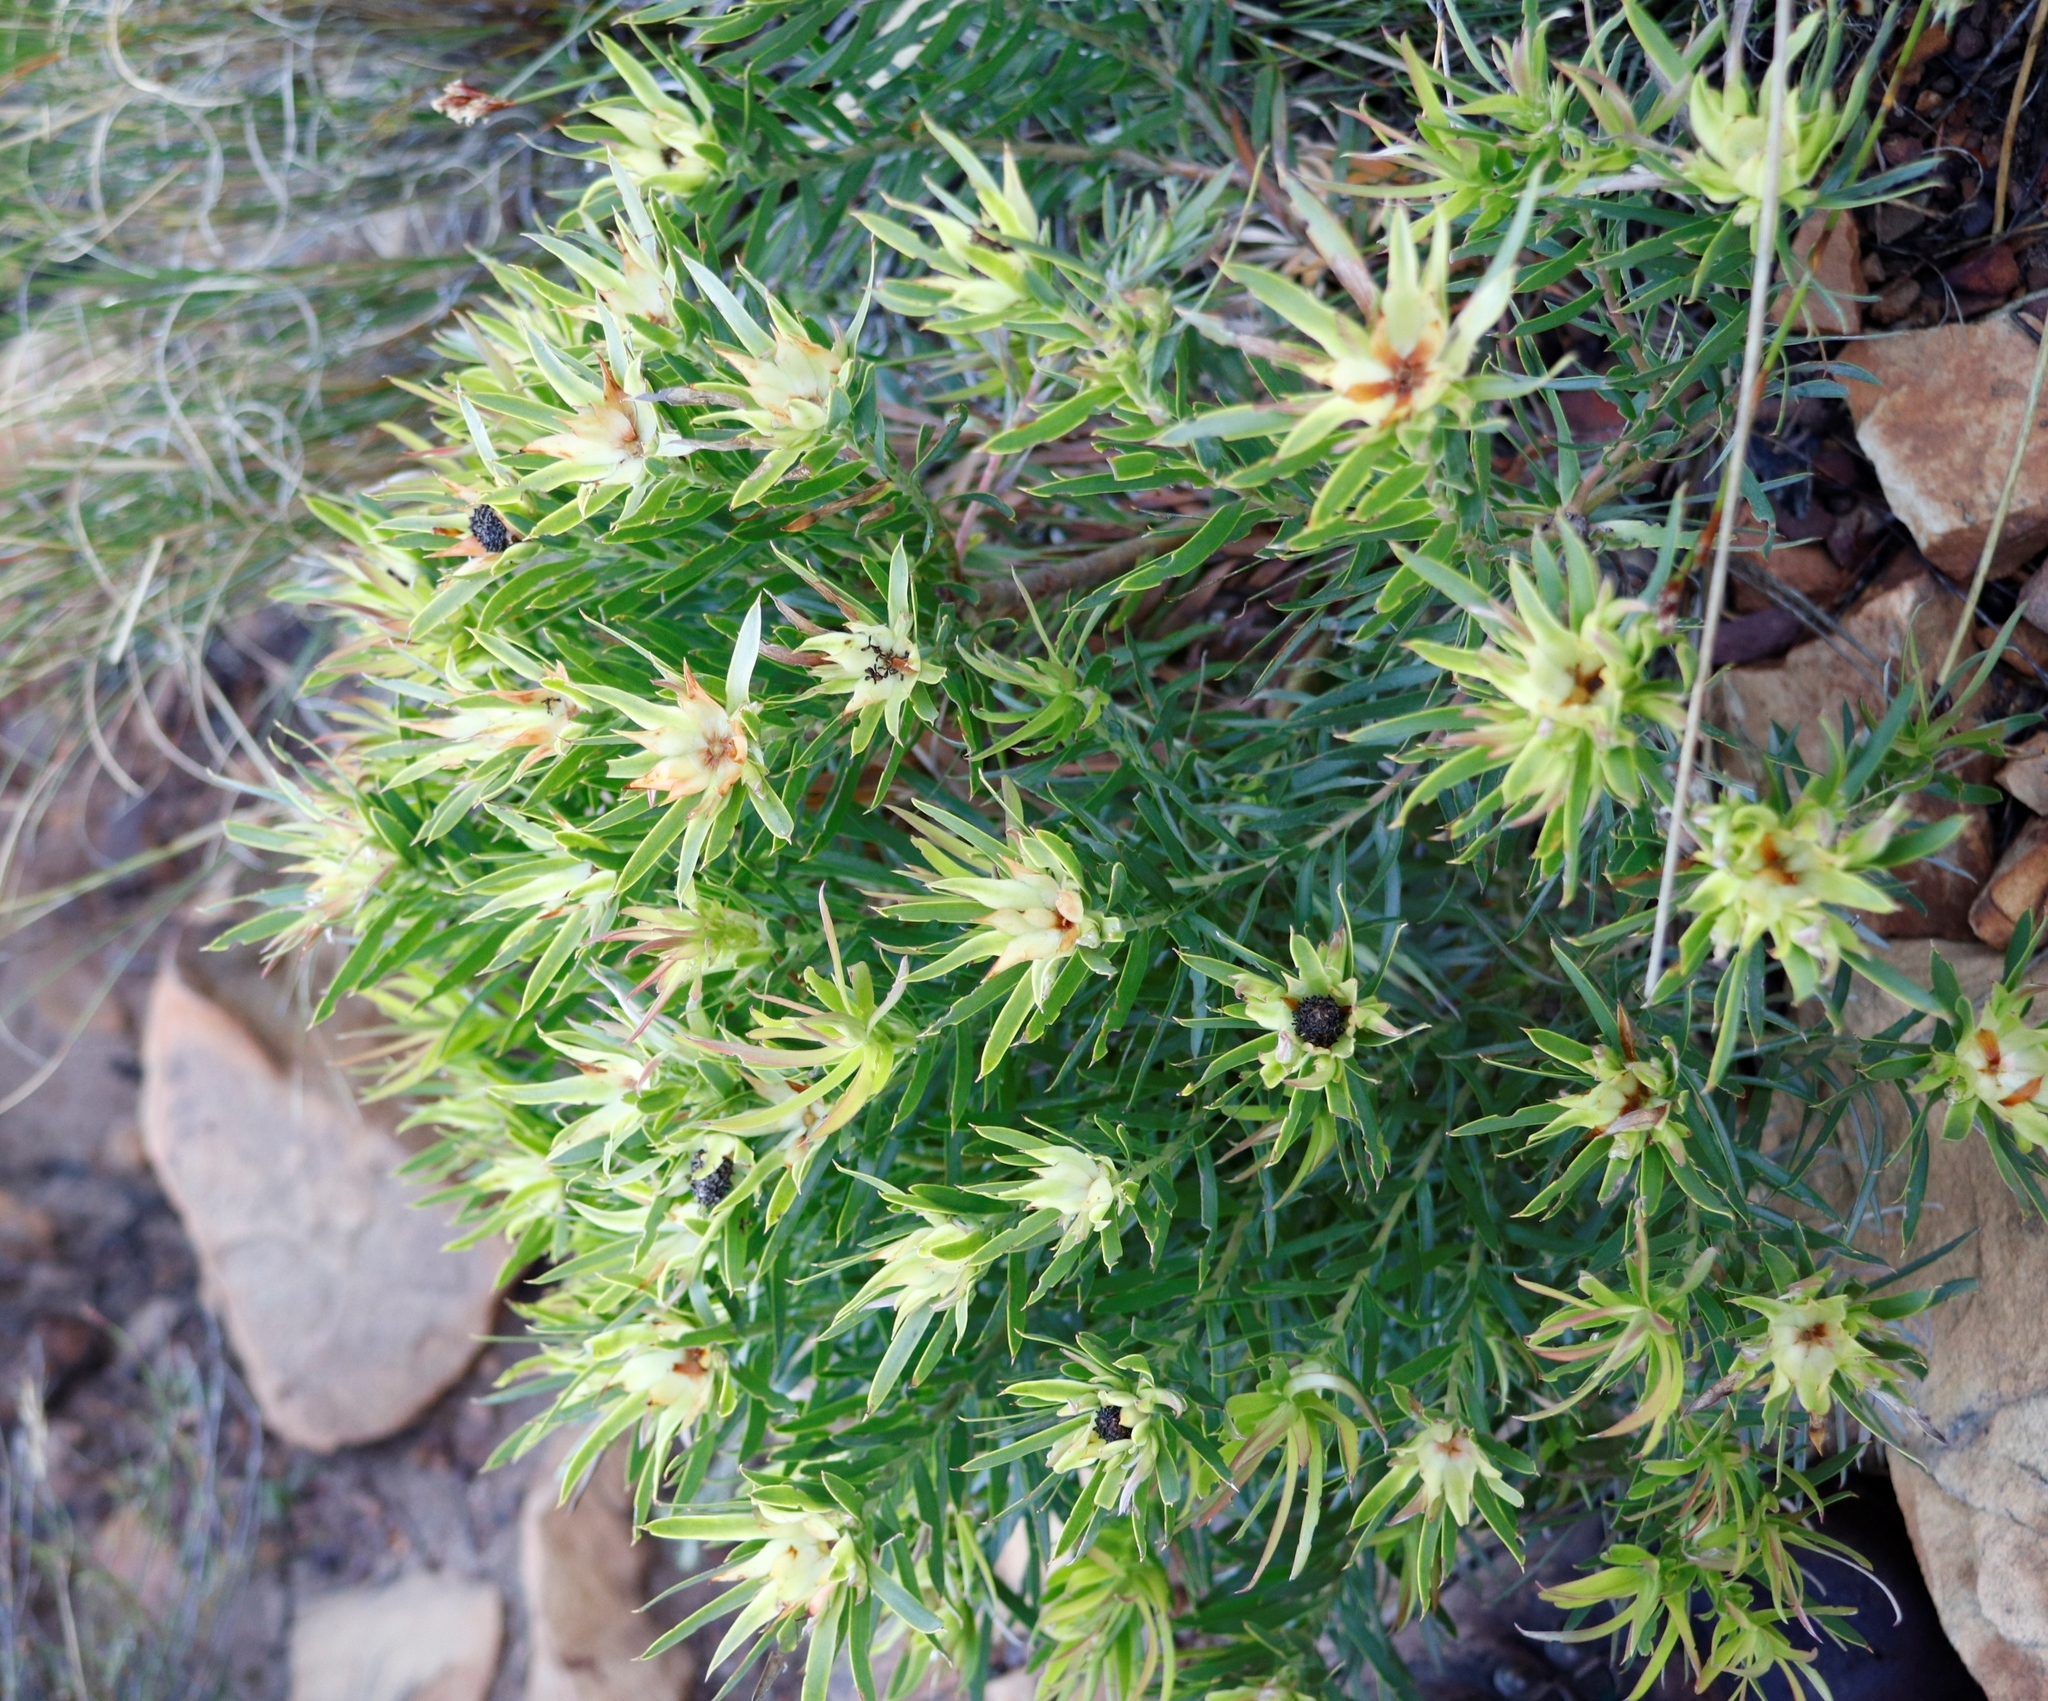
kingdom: Plantae
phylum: Tracheophyta
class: Magnoliopsida
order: Proteales
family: Proteaceae
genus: Leucadendron
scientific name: Leucadendron xanthoconus
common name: Sickle-leaf conebush
